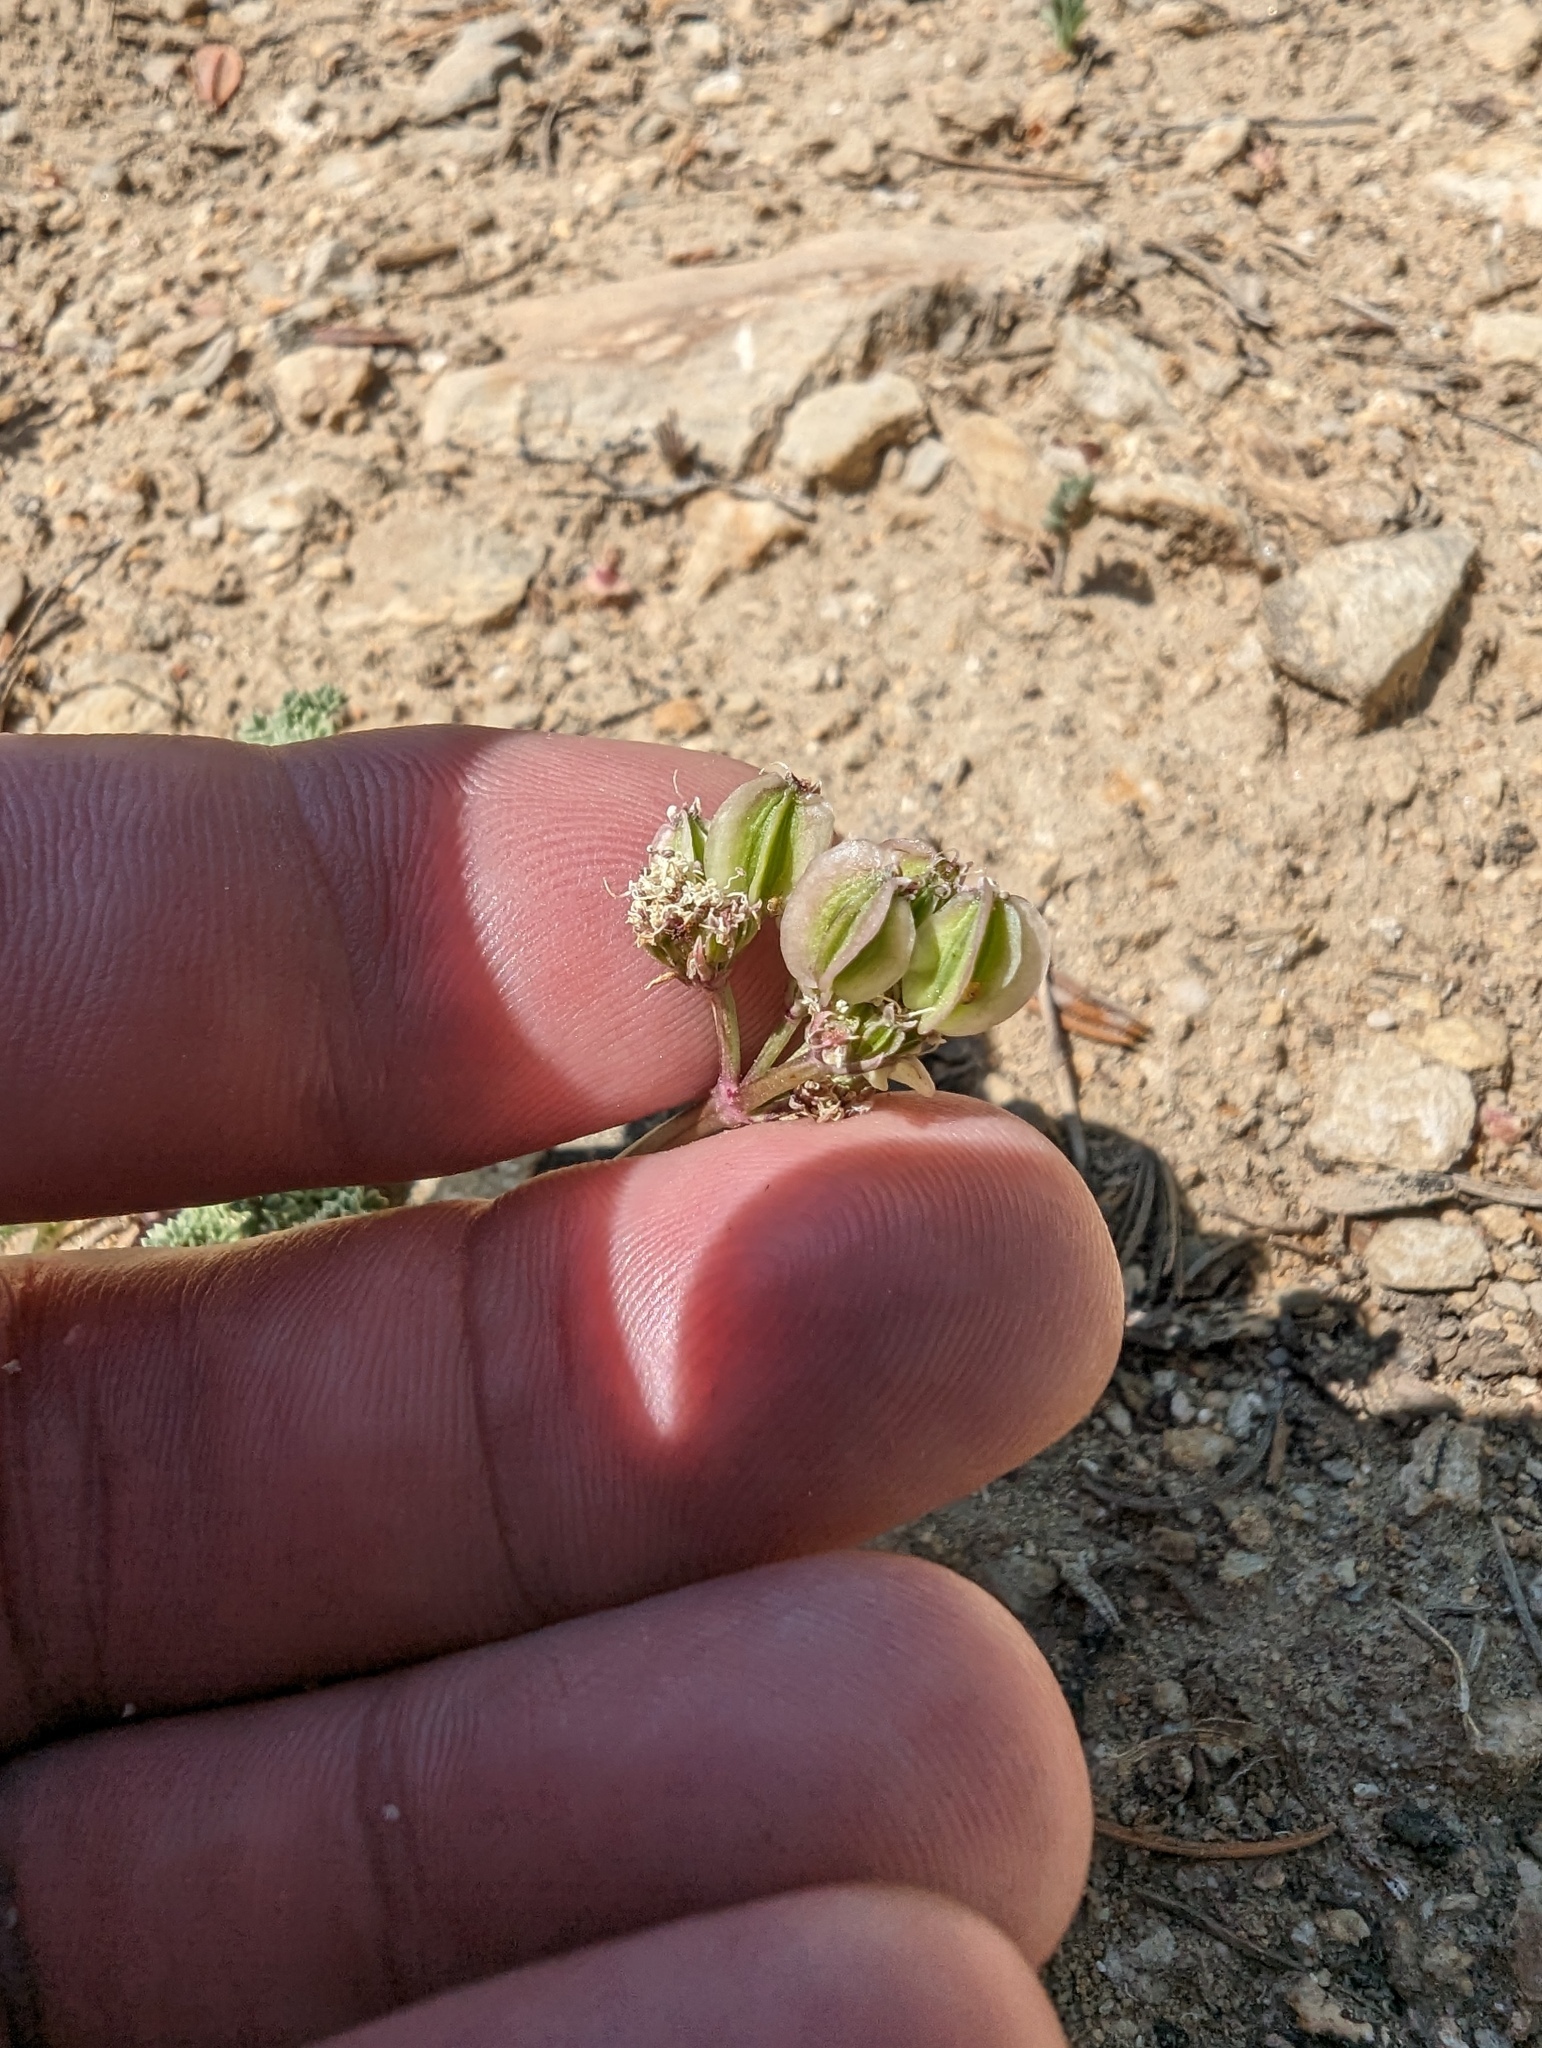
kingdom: Plantae
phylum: Tracheophyta
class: Magnoliopsida
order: Apiales
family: Apiaceae
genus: Aulospermum
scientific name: Aulospermum aboriginum
